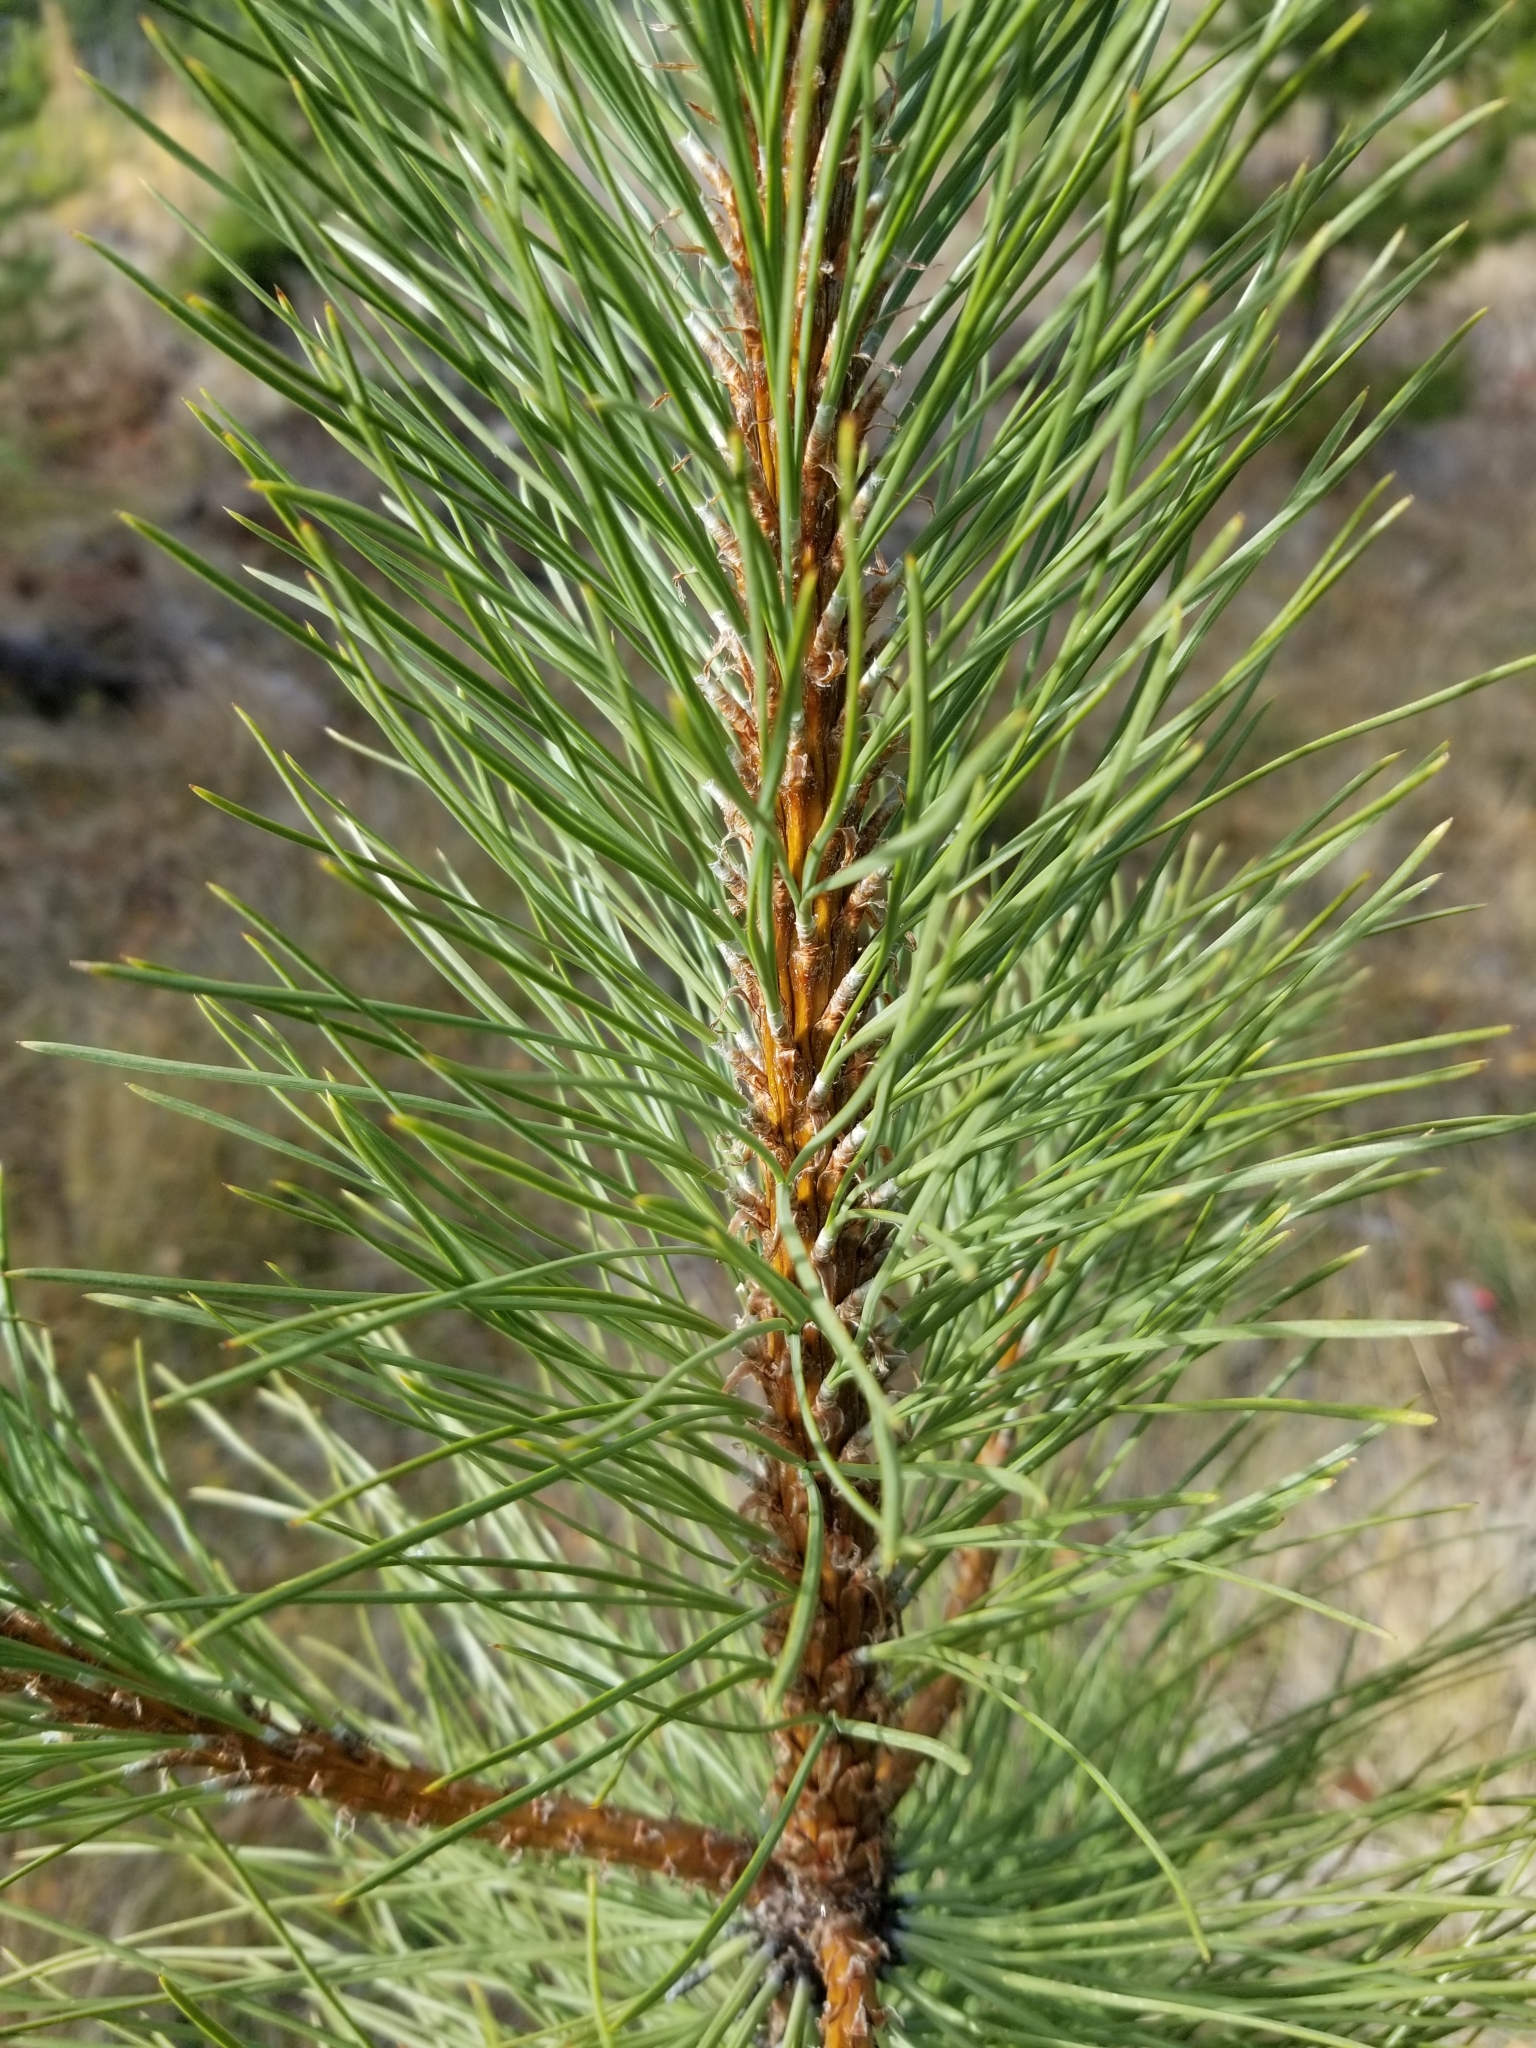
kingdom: Plantae
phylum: Tracheophyta
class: Pinopsida
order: Pinales
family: Pinaceae
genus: Pinus
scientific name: Pinus ponderosa
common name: Western yellow-pine
